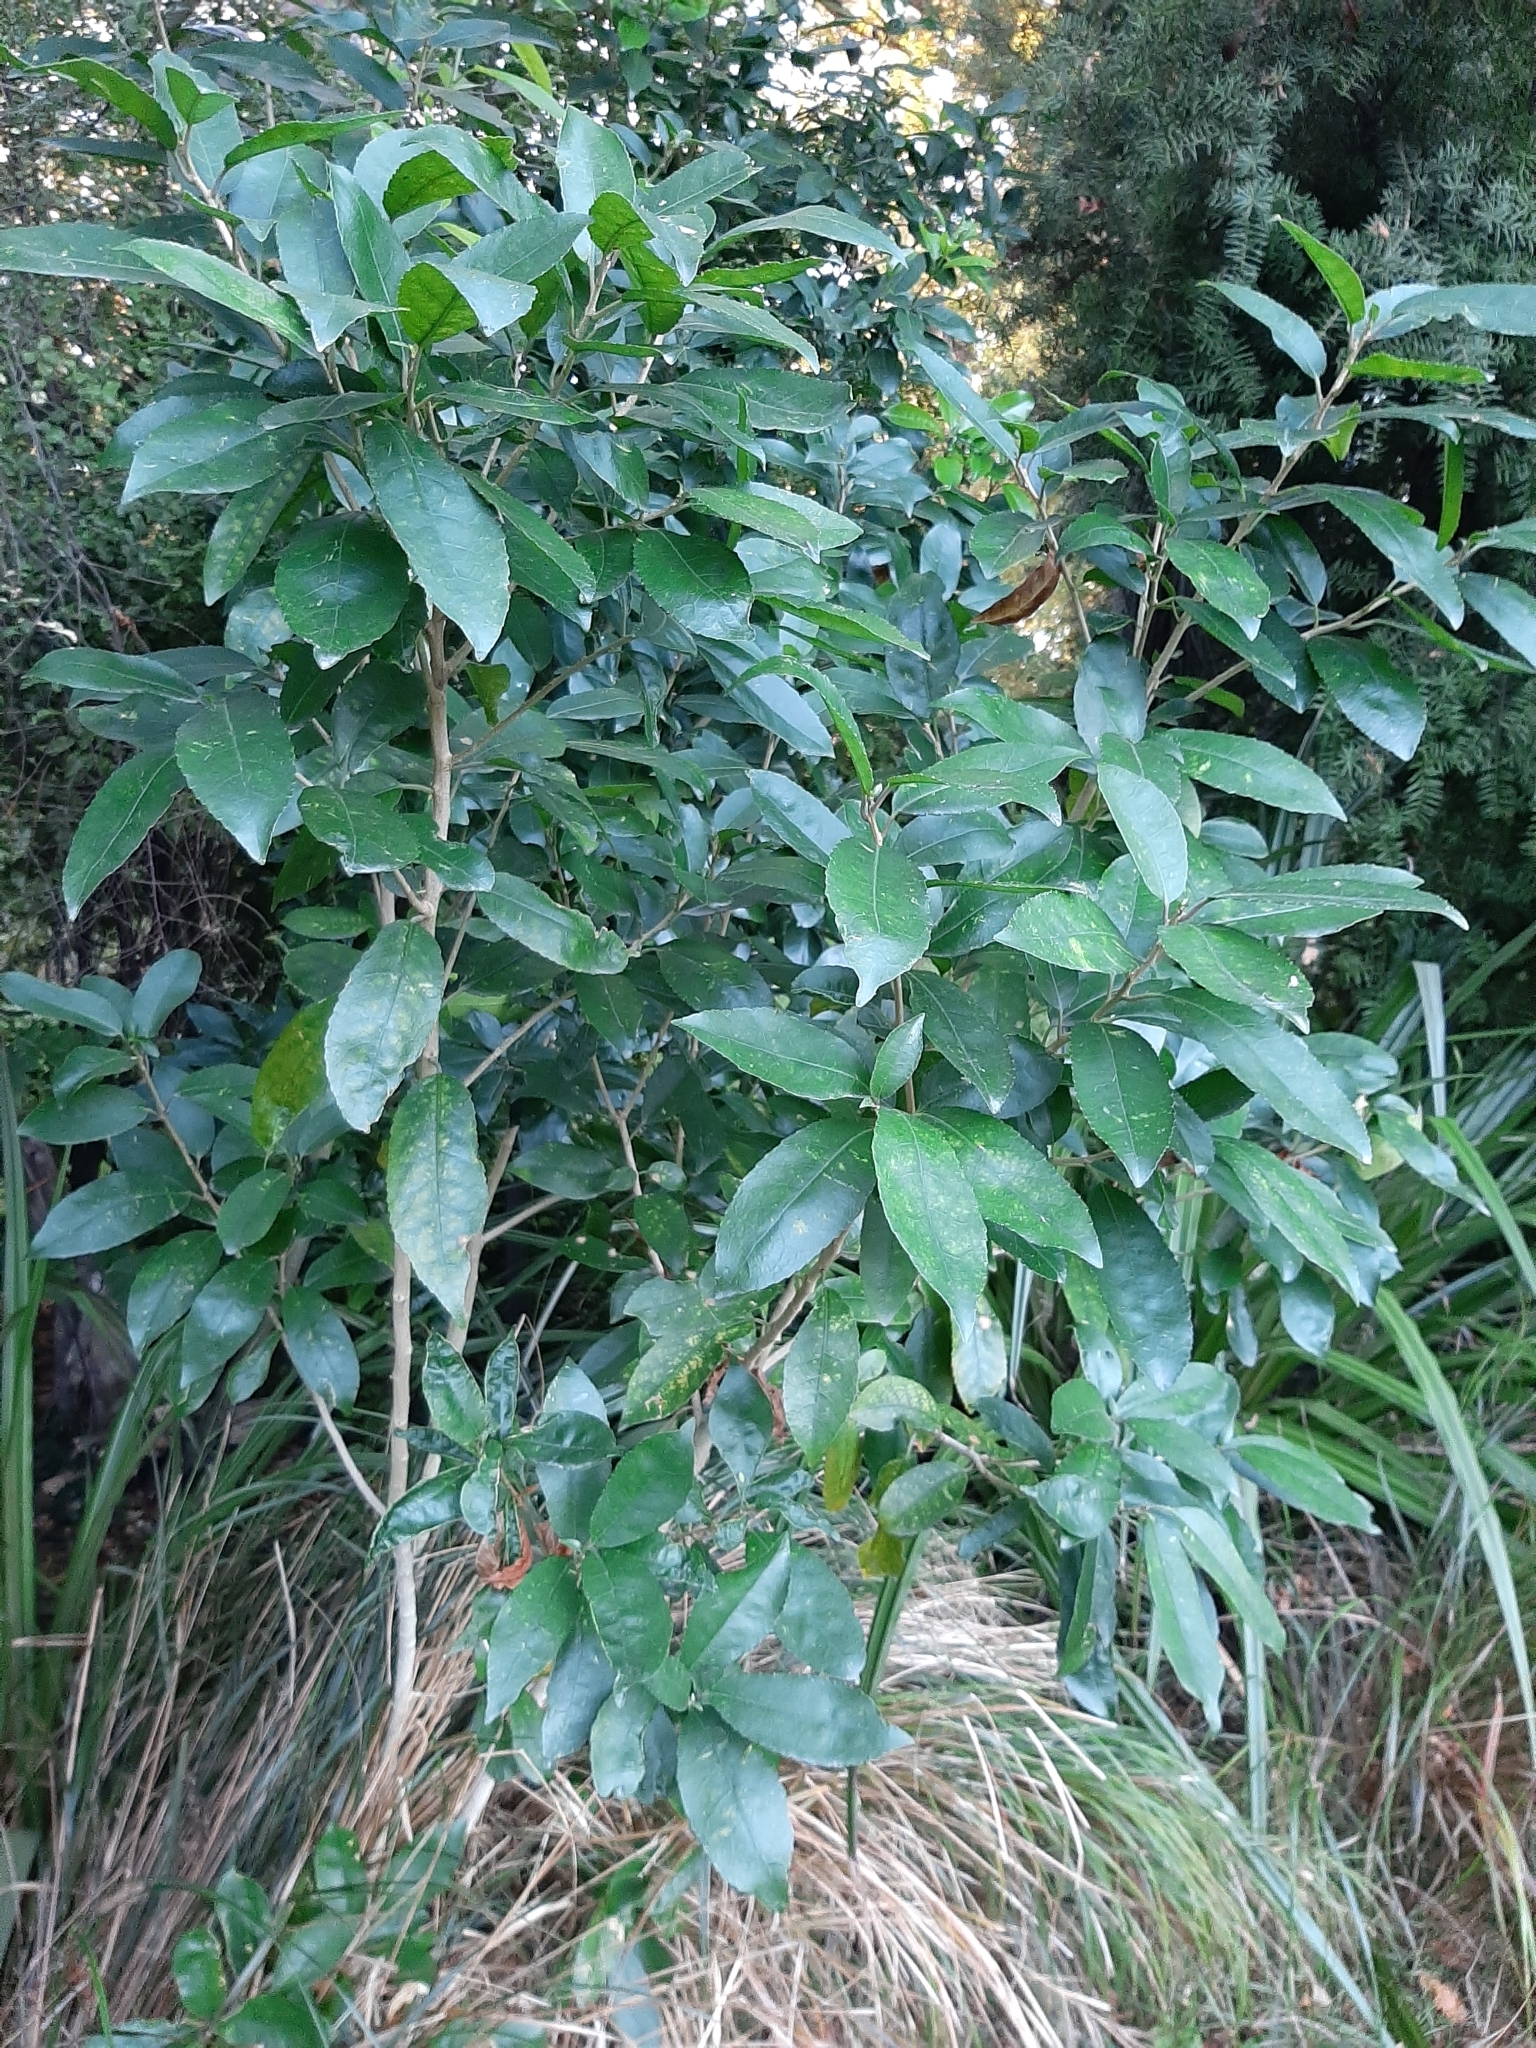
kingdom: Plantae
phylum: Tracheophyta
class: Magnoliopsida
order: Malpighiales
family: Violaceae
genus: Melicytus
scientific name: Melicytus ramiflorus
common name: Mahoe
